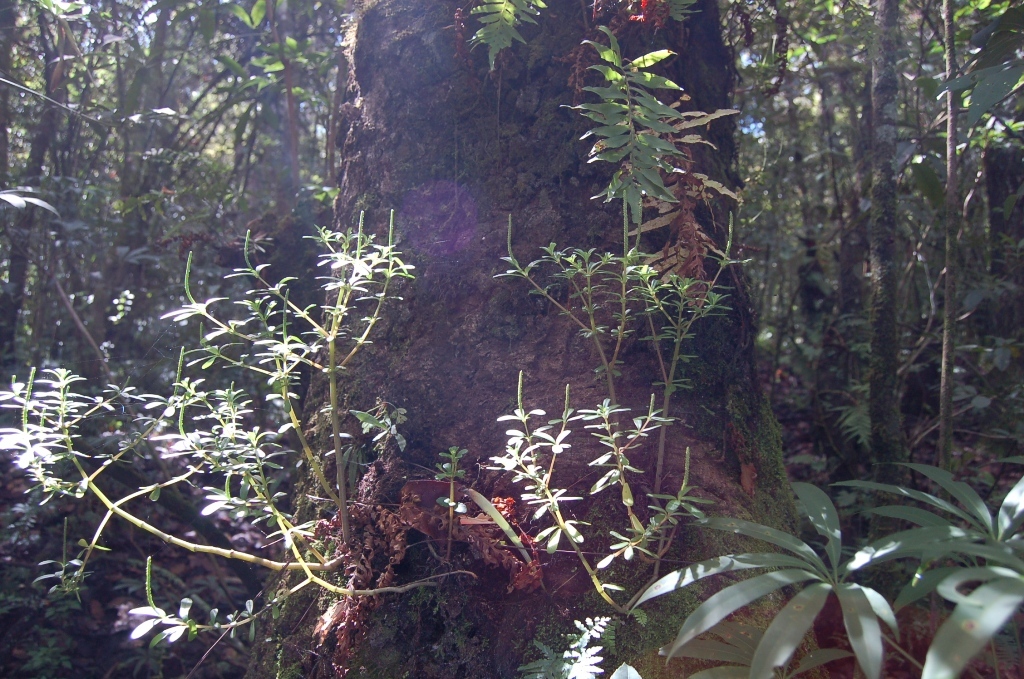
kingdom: Plantae
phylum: Tracheophyta
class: Magnoliopsida
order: Piperales
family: Piperaceae
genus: Peperomia
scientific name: Peperomia quadrifolia
